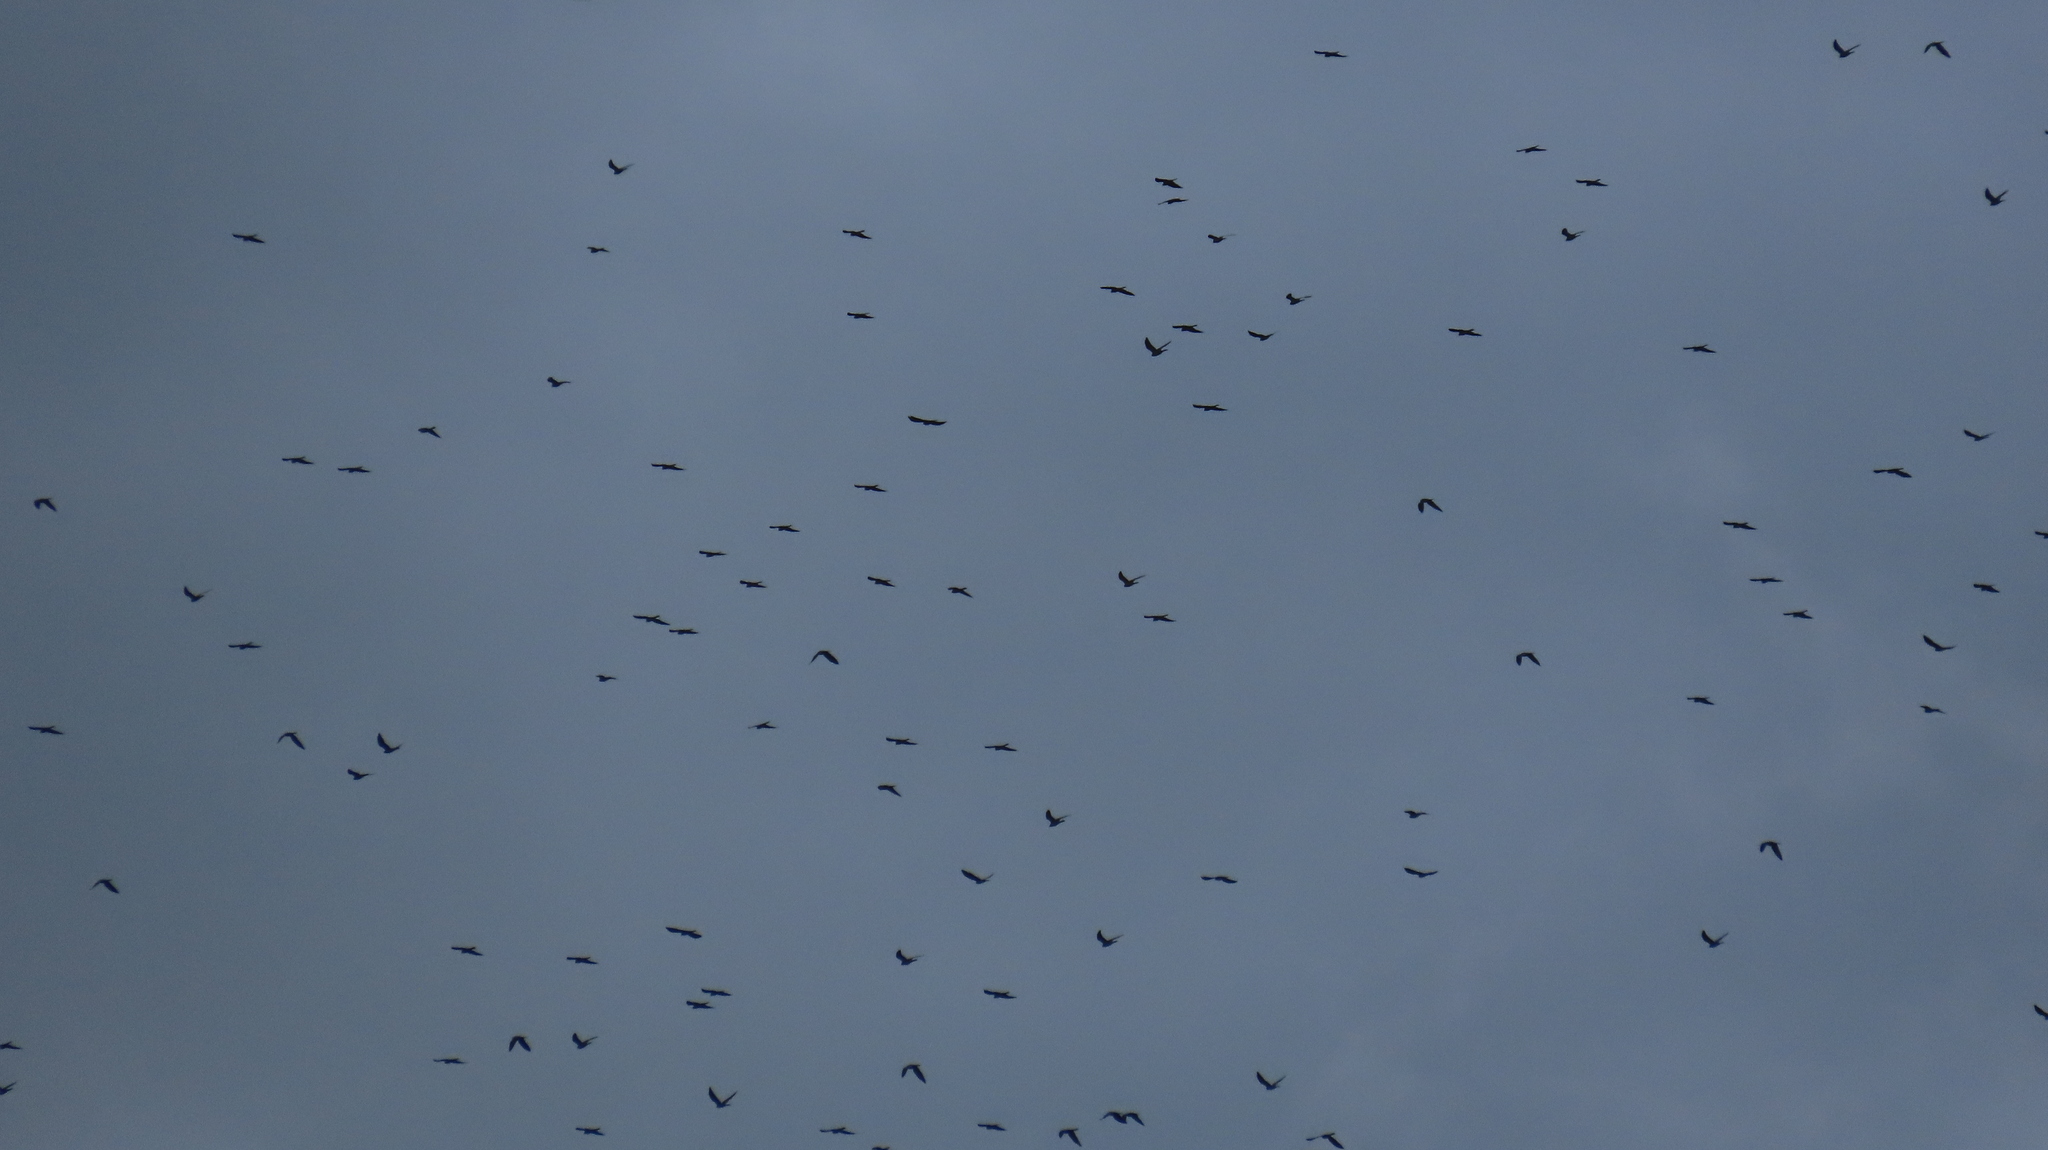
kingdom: Animalia
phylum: Chordata
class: Aves
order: Accipitriformes
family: Accipitridae
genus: Ictinia
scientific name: Ictinia mississippiensis
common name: Mississippi kite
